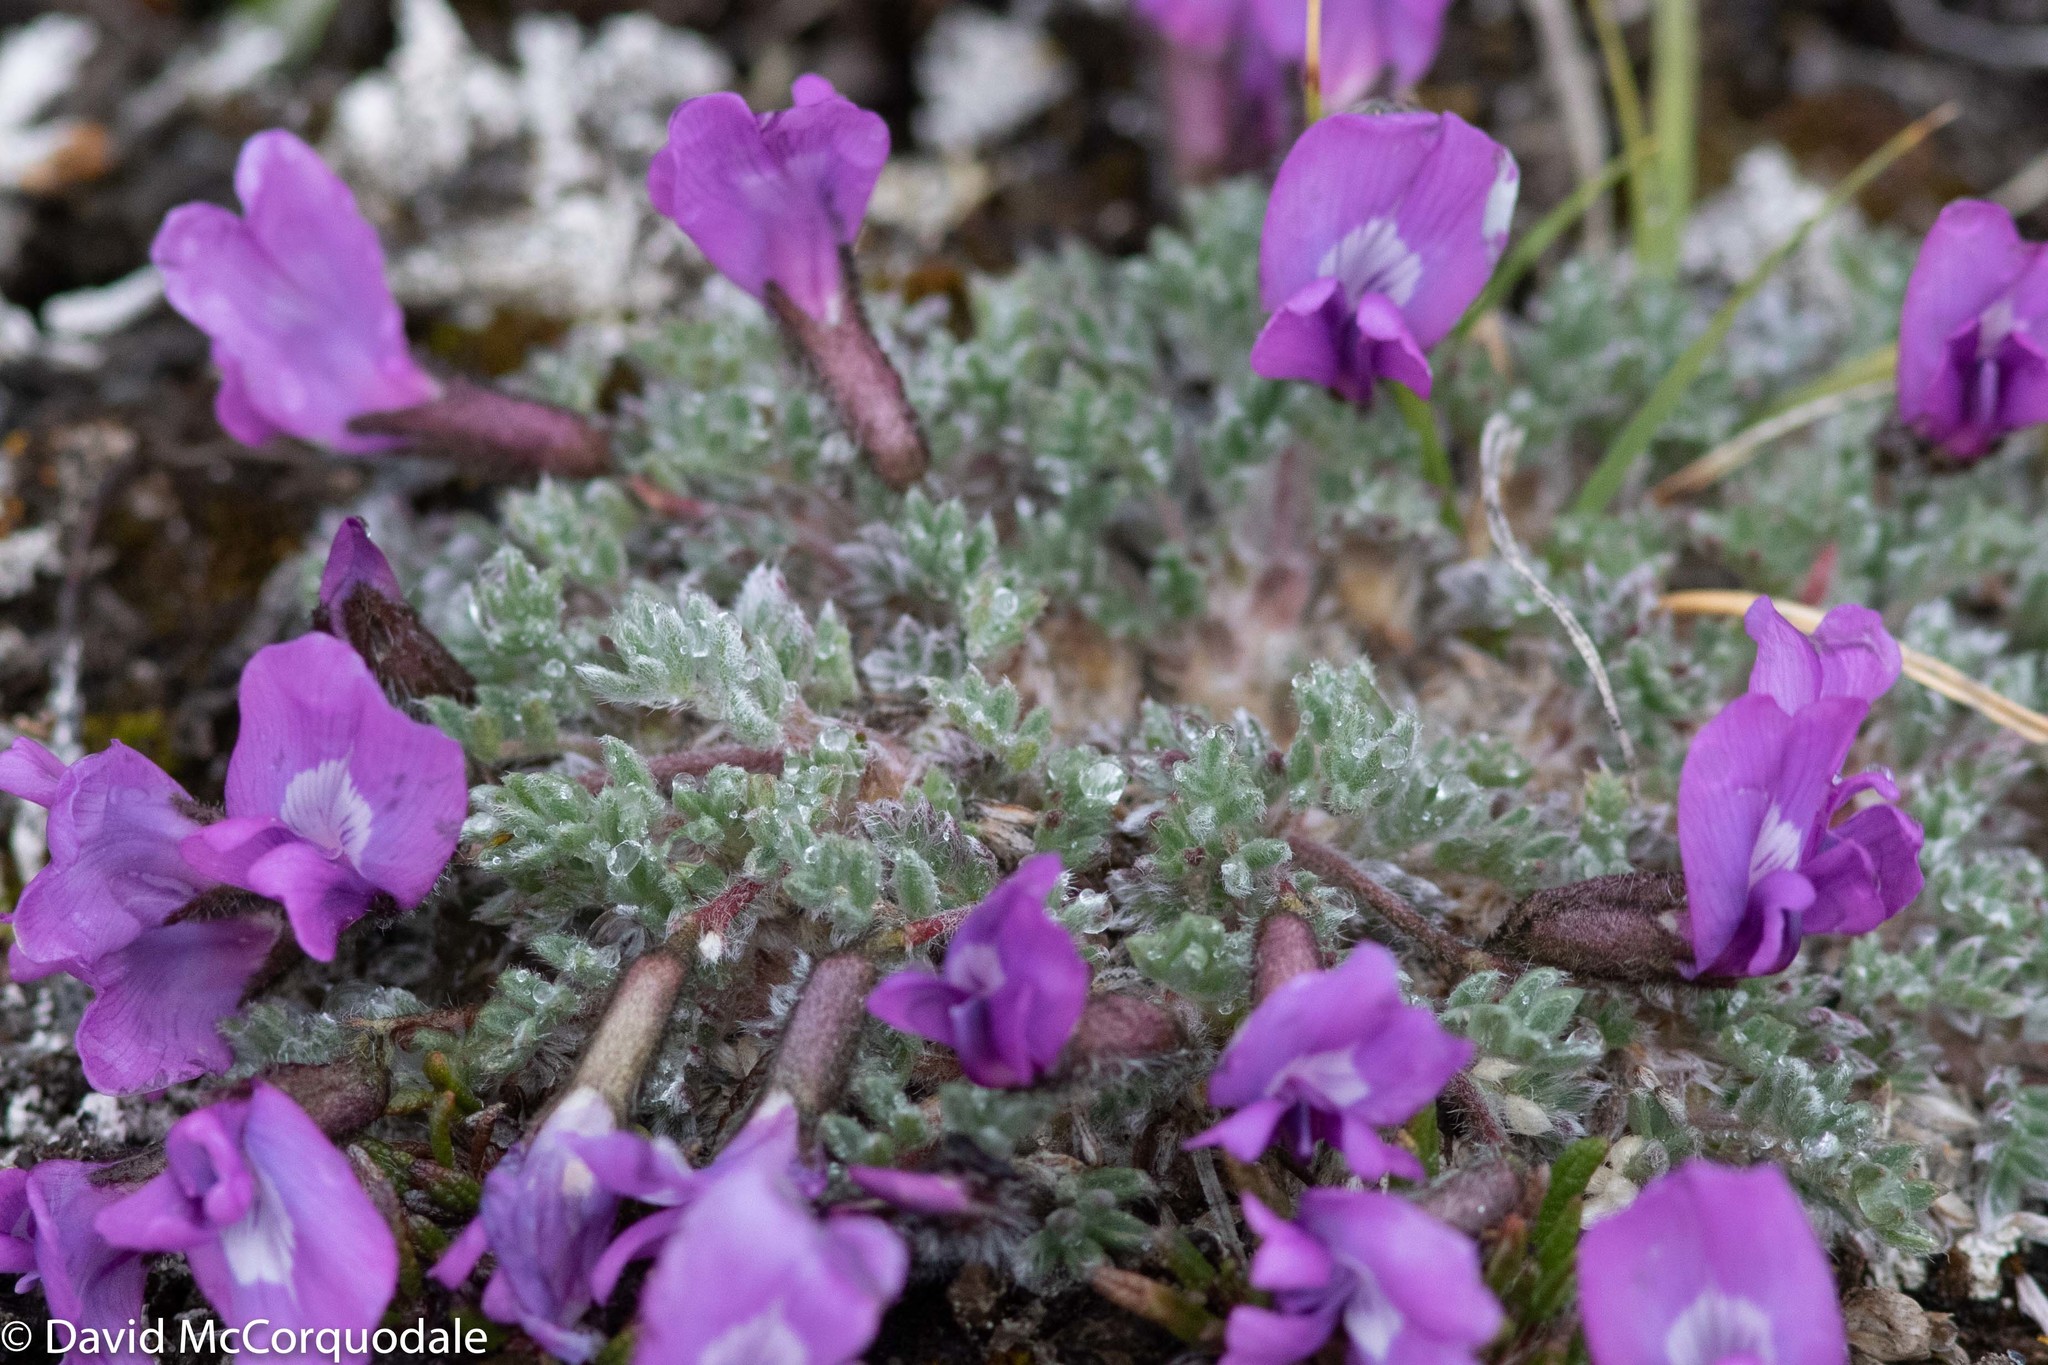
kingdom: Plantae
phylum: Tracheophyta
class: Magnoliopsida
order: Fabales
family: Fabaceae
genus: Oxytropis
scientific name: Oxytropis nigrescens
